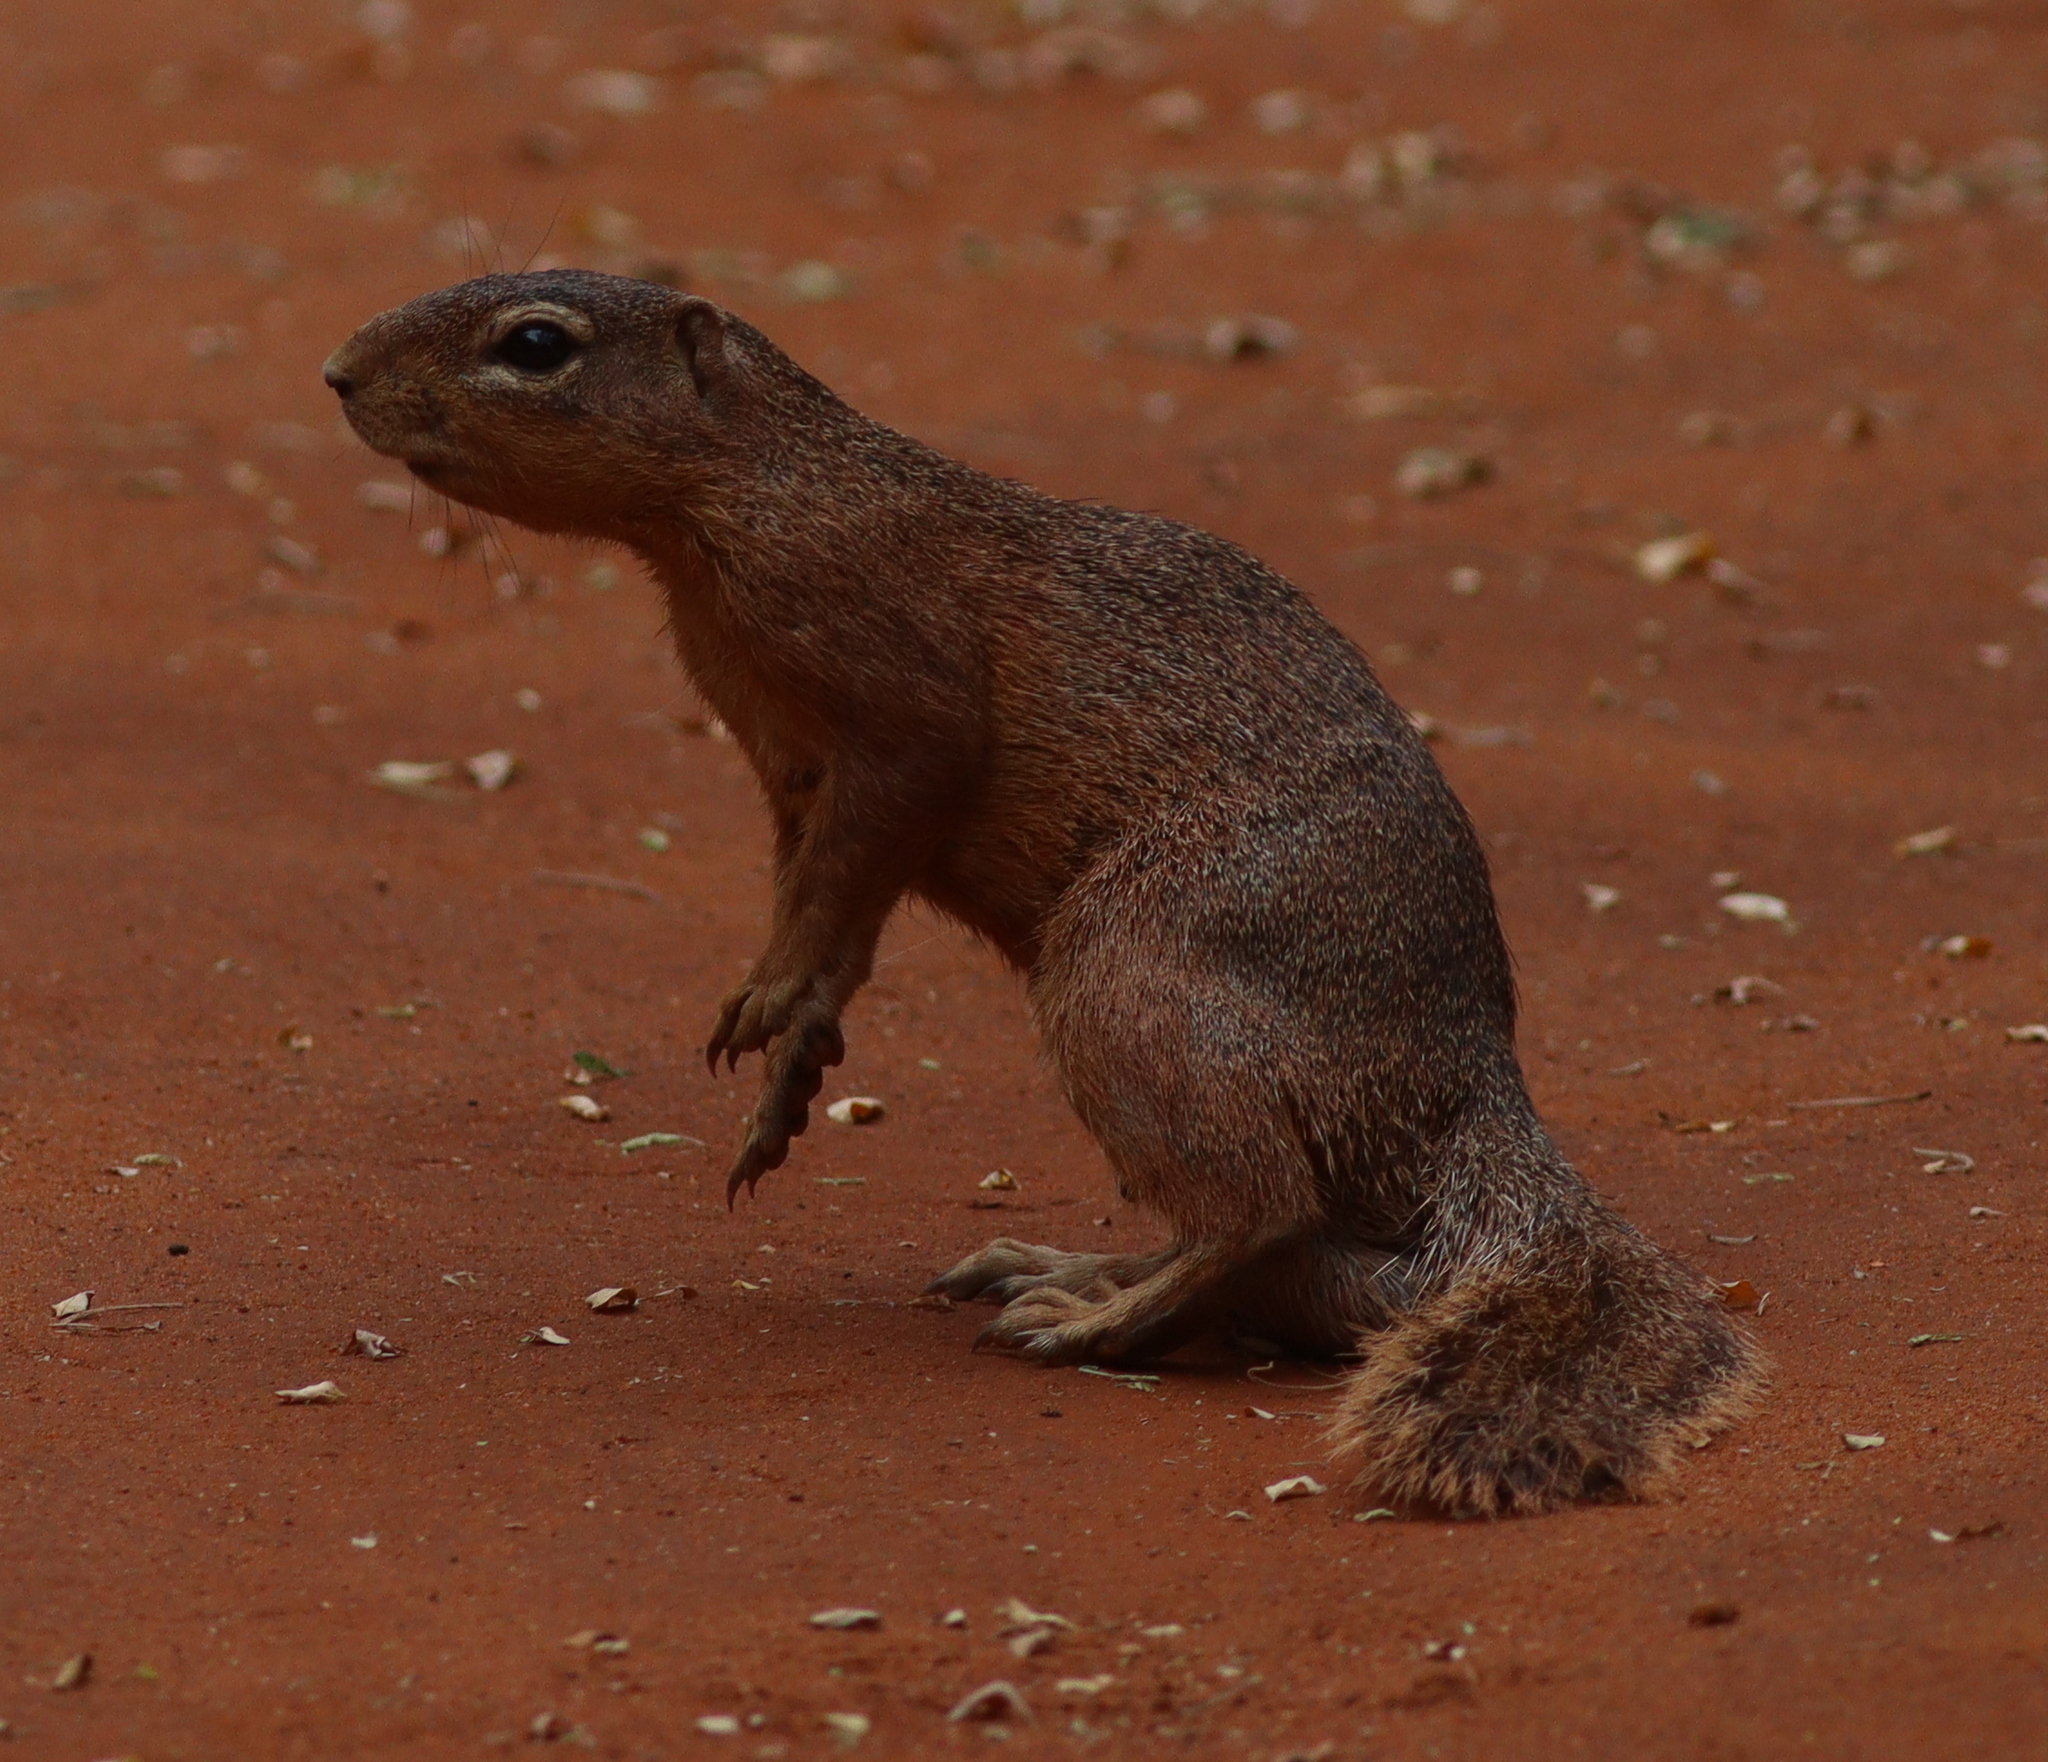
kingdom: Animalia
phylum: Chordata
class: Mammalia
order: Rodentia
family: Sciuridae
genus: Xerus
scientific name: Xerus rutilus
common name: Unstriped ground squirrel
